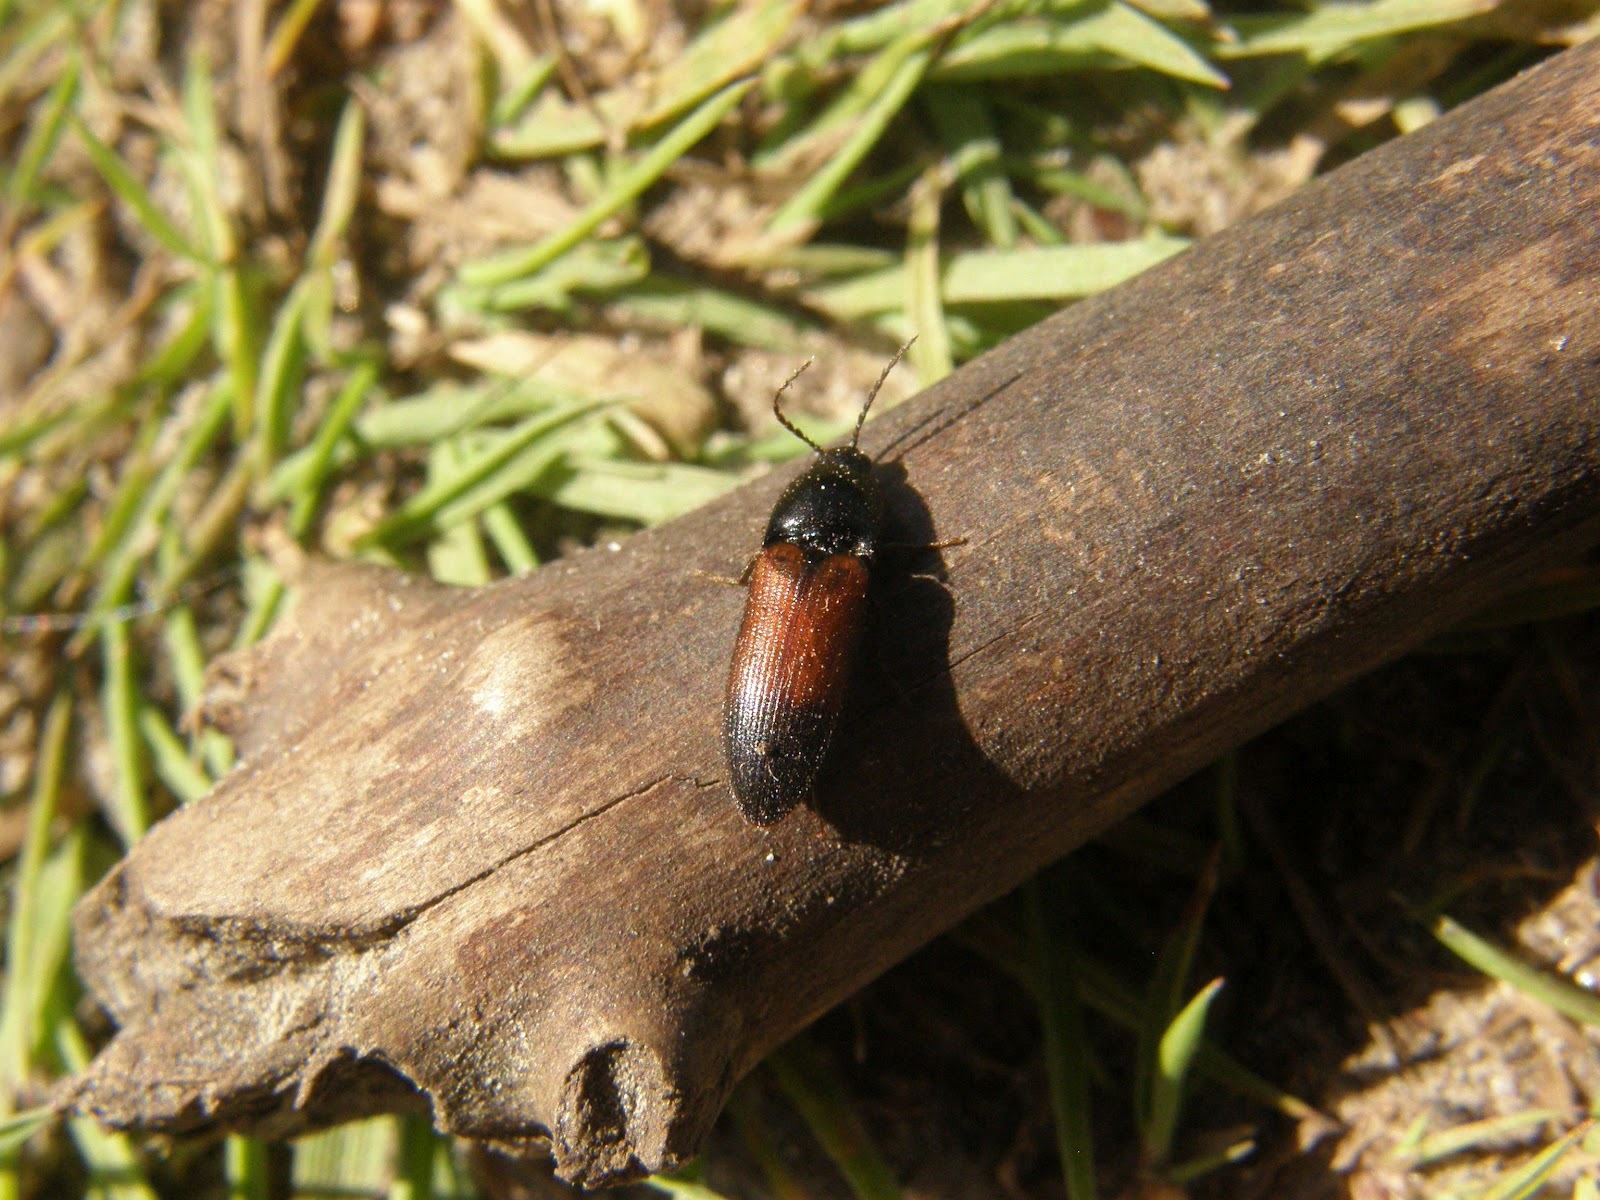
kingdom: Animalia
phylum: Arthropoda
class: Insecta
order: Coleoptera
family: Elateridae
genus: Ampedus
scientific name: Ampedus balteatus
